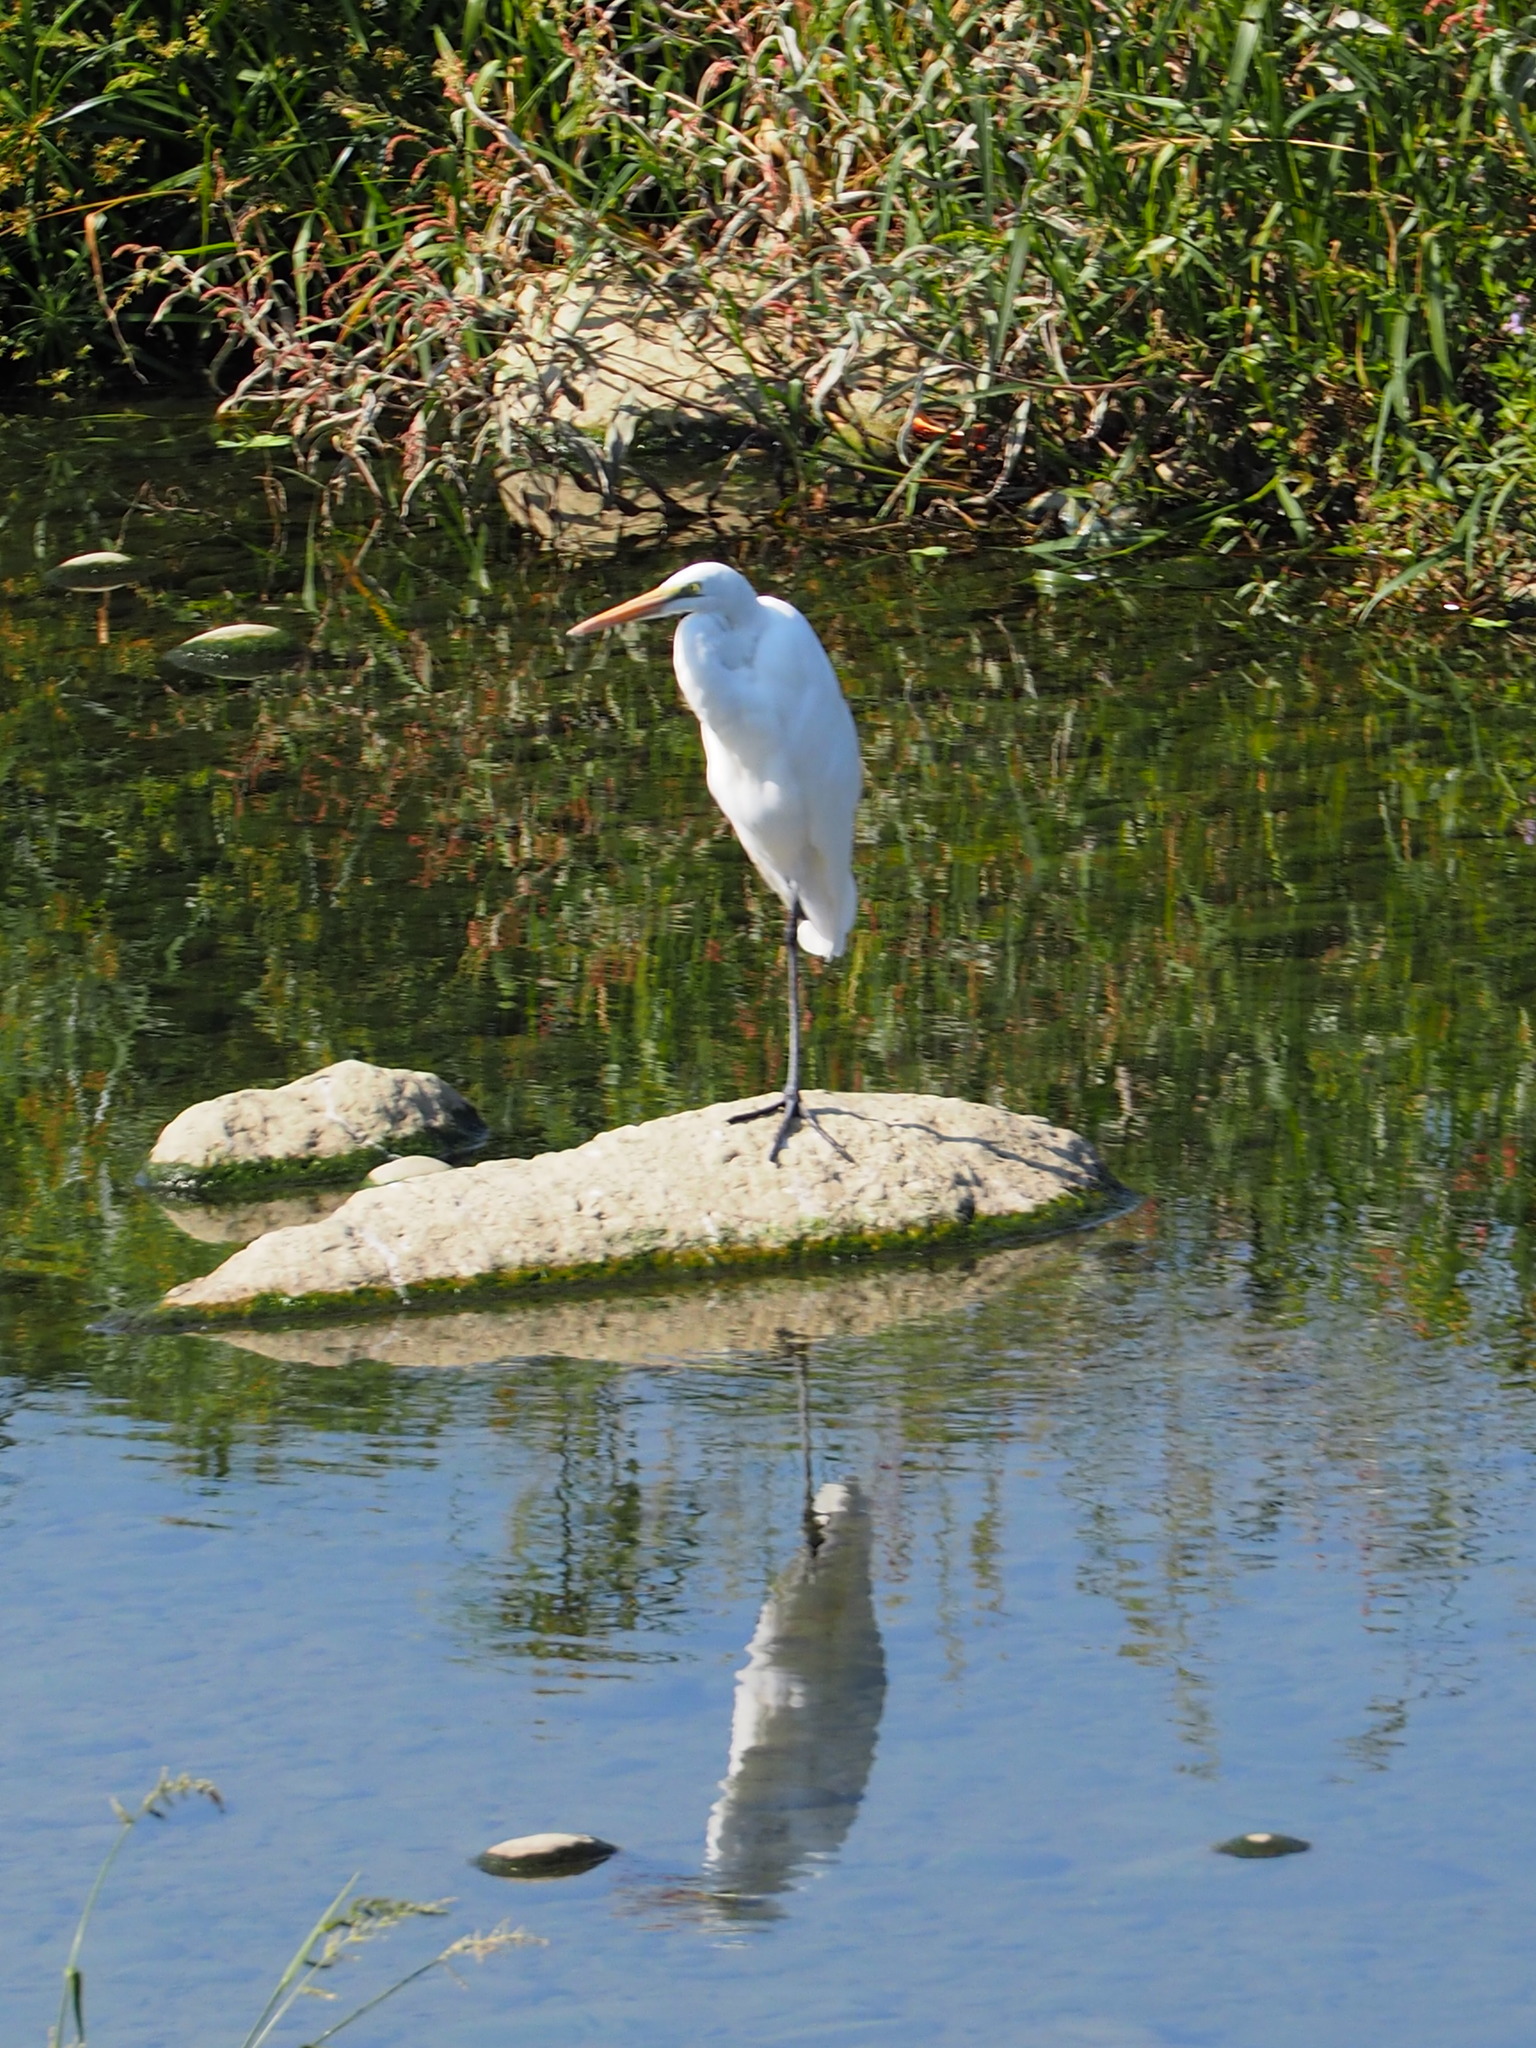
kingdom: Animalia
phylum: Chordata
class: Aves
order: Pelecaniformes
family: Ardeidae
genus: Ardea
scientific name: Ardea alba
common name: Great egret
